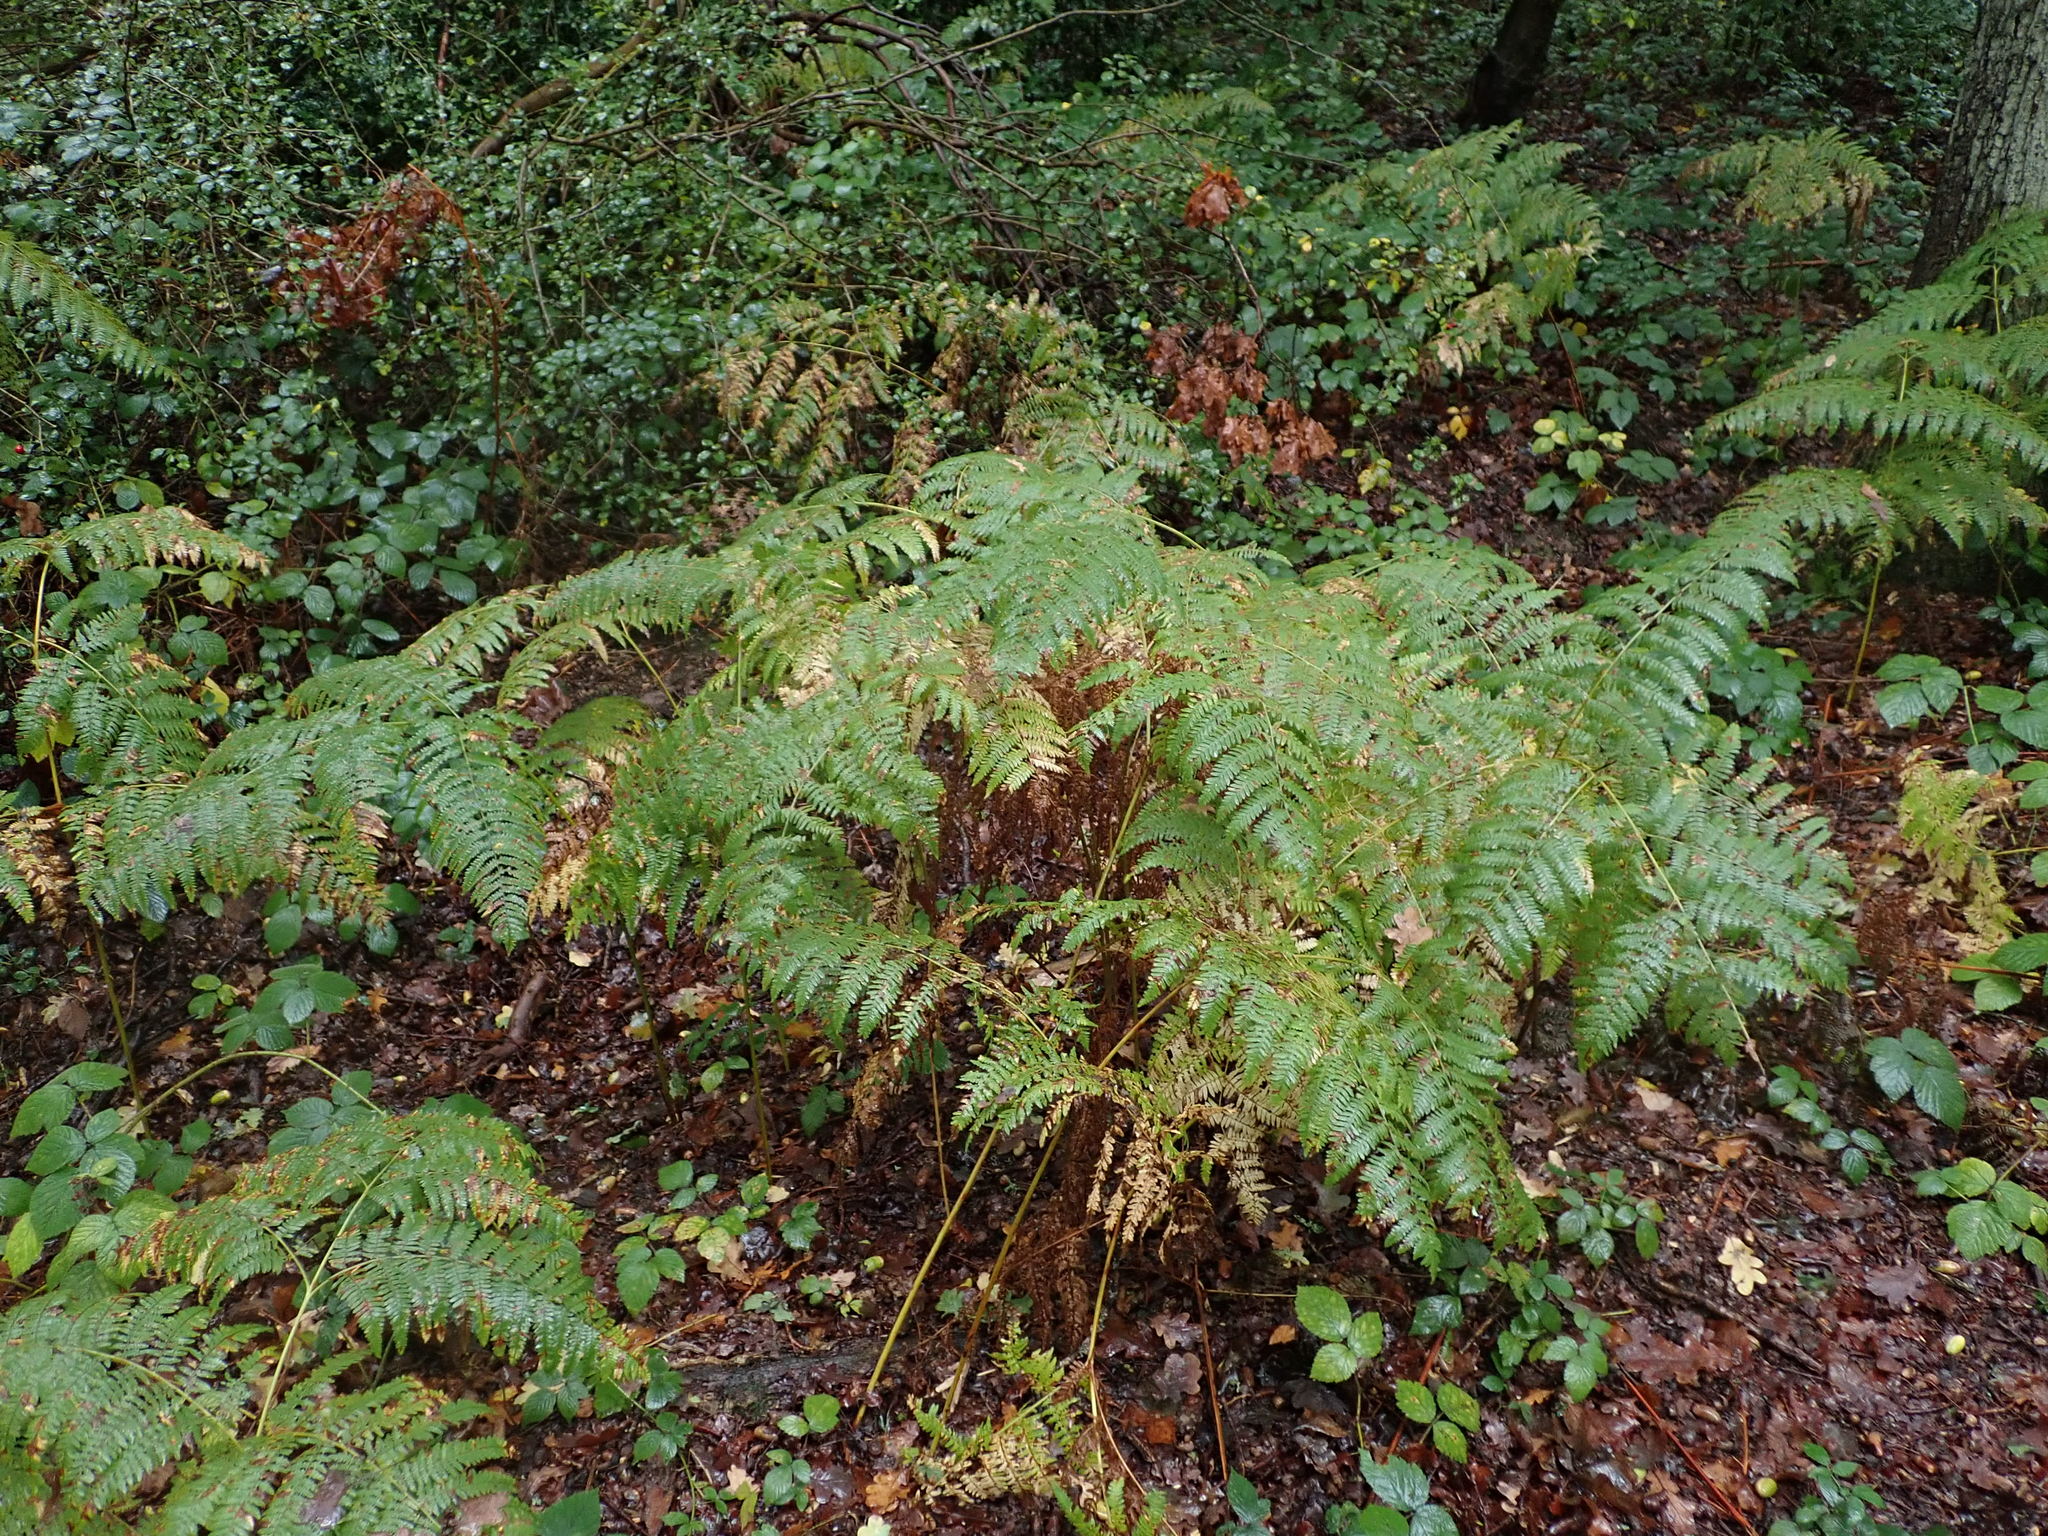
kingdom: Plantae
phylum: Tracheophyta
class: Polypodiopsida
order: Polypodiales
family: Dennstaedtiaceae
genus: Pteridium
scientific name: Pteridium aquilinum
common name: Bracken
